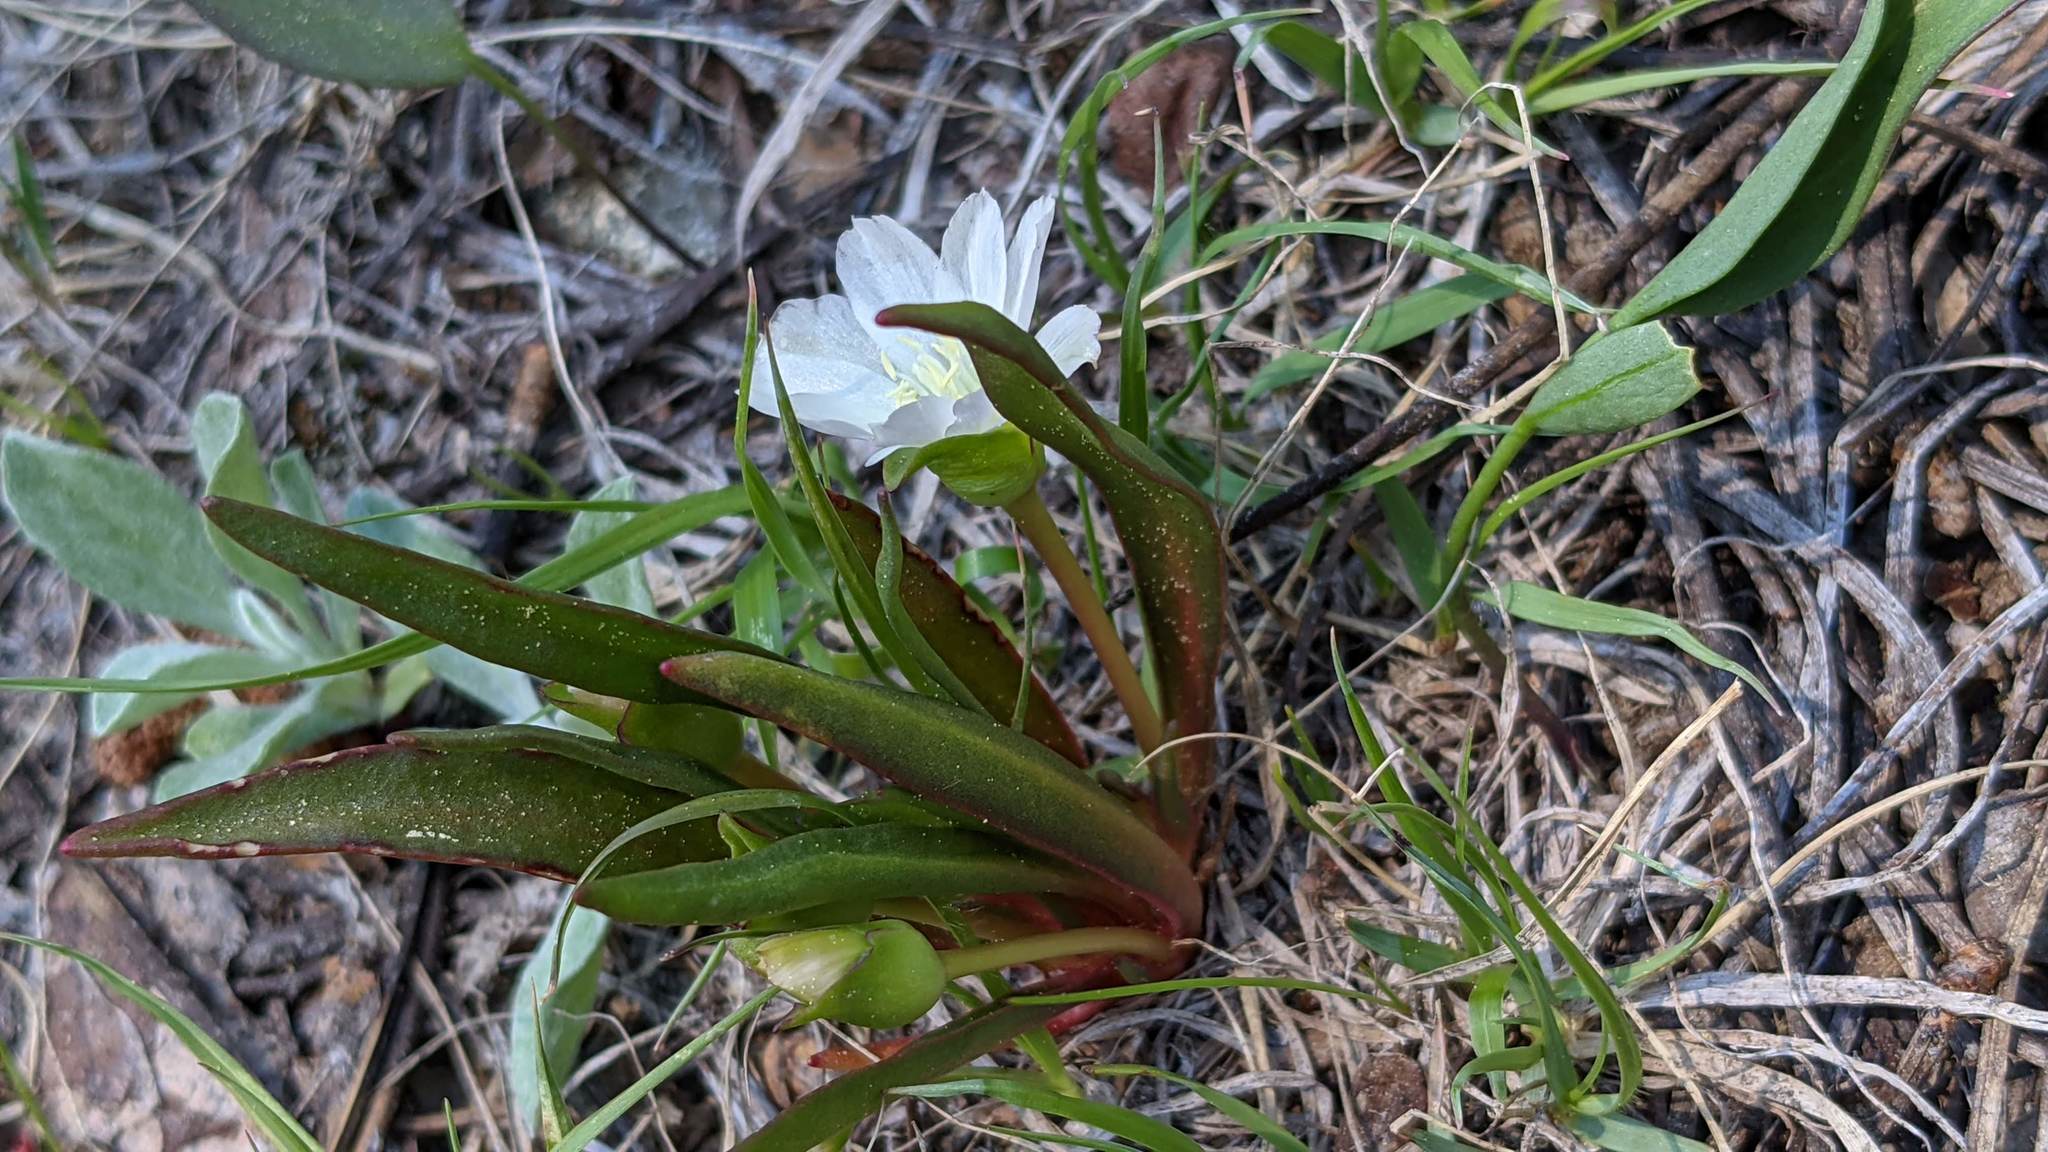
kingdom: Plantae
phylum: Tracheophyta
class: Magnoliopsida
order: Caryophyllales
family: Montiaceae
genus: Lewisia
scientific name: Lewisia nevadensis
